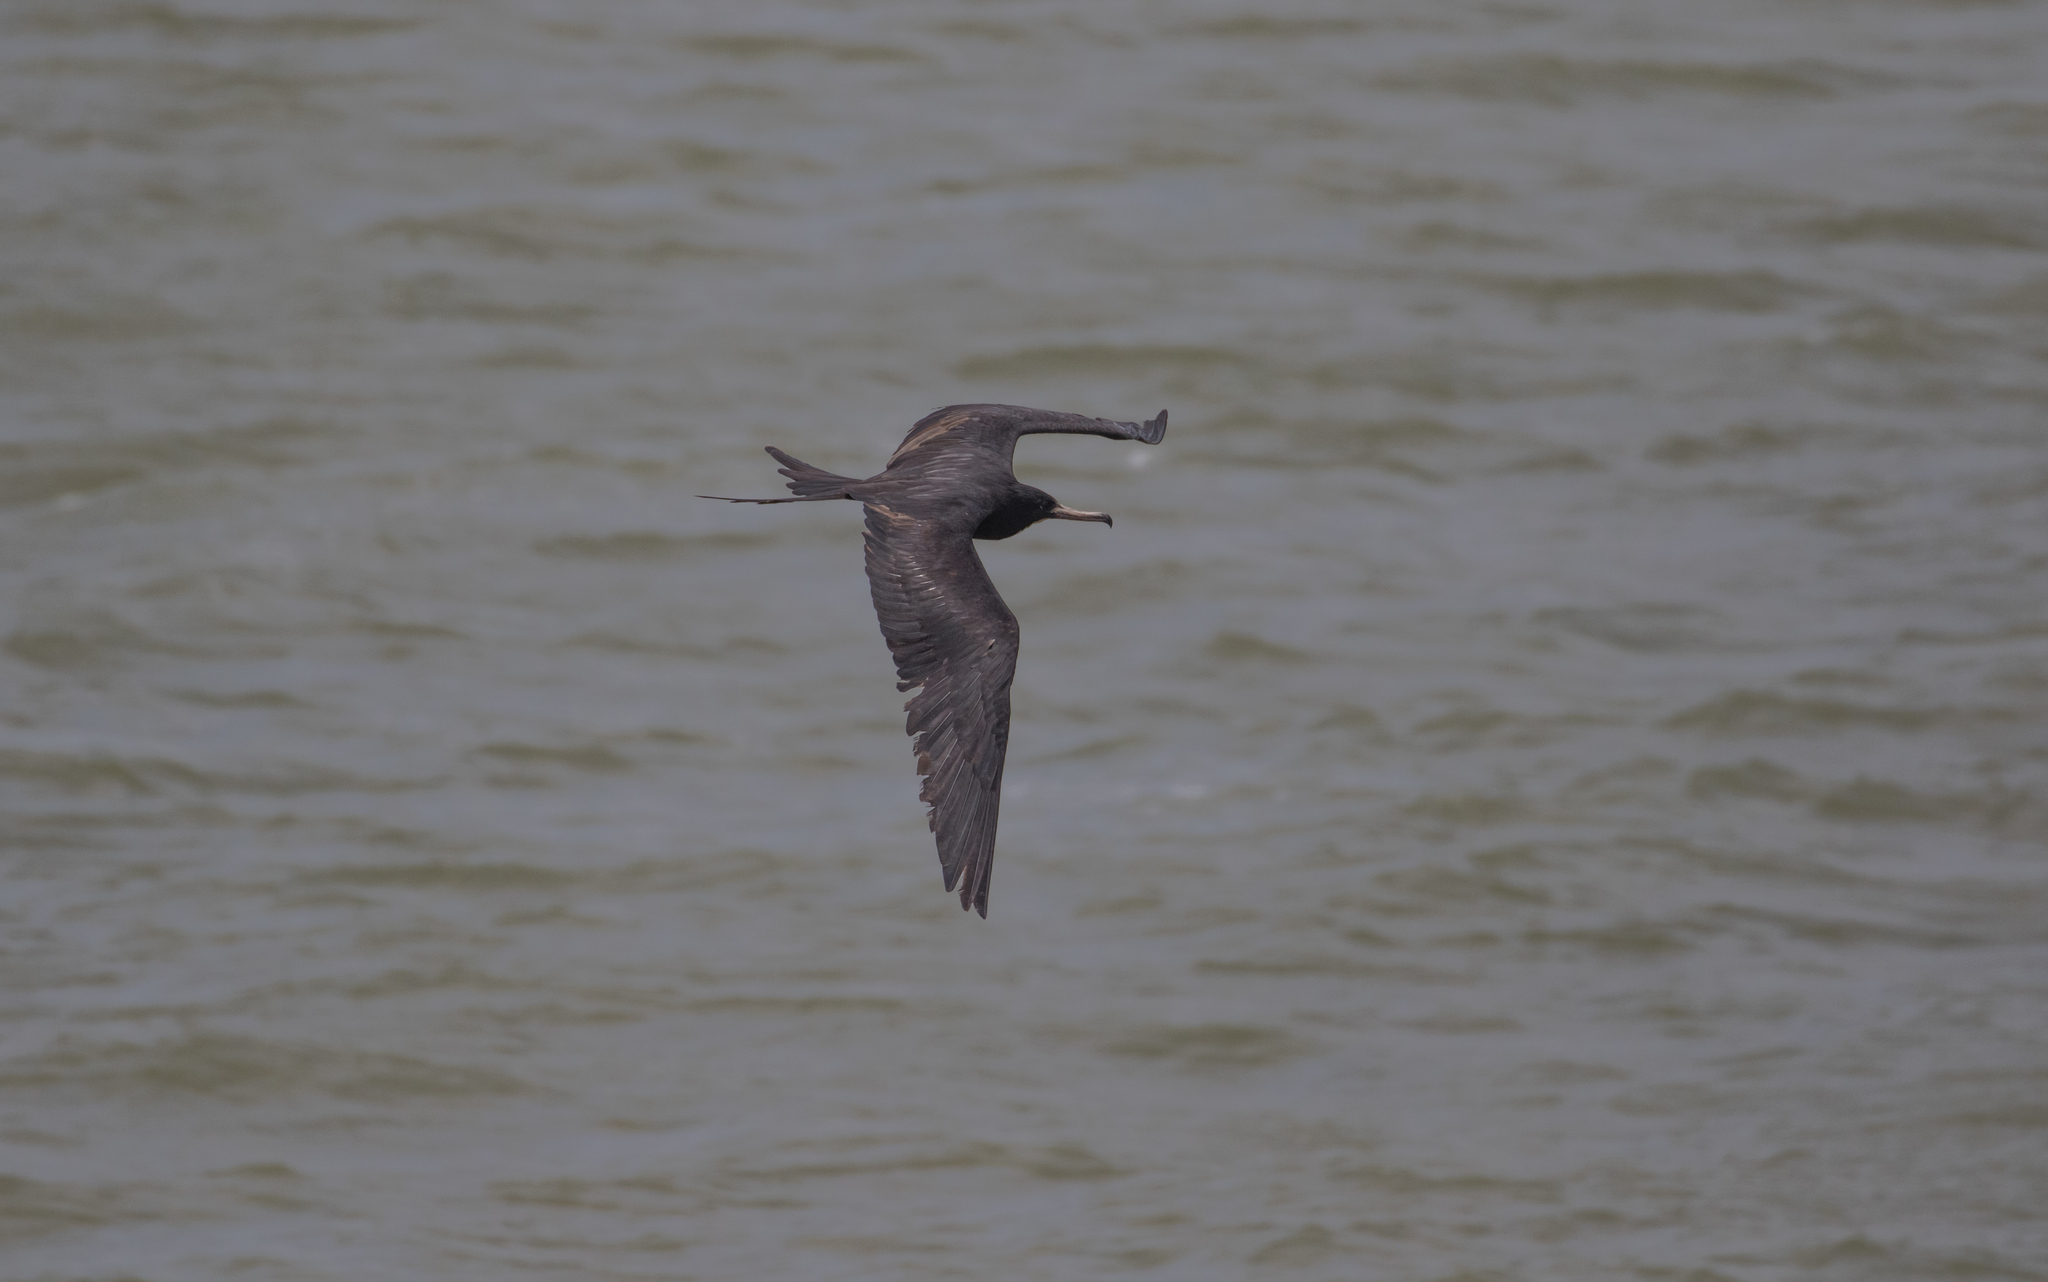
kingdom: Animalia
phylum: Chordata
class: Aves
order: Suliformes
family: Fregatidae
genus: Fregata
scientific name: Fregata magnificens
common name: Magnificent frigatebird
